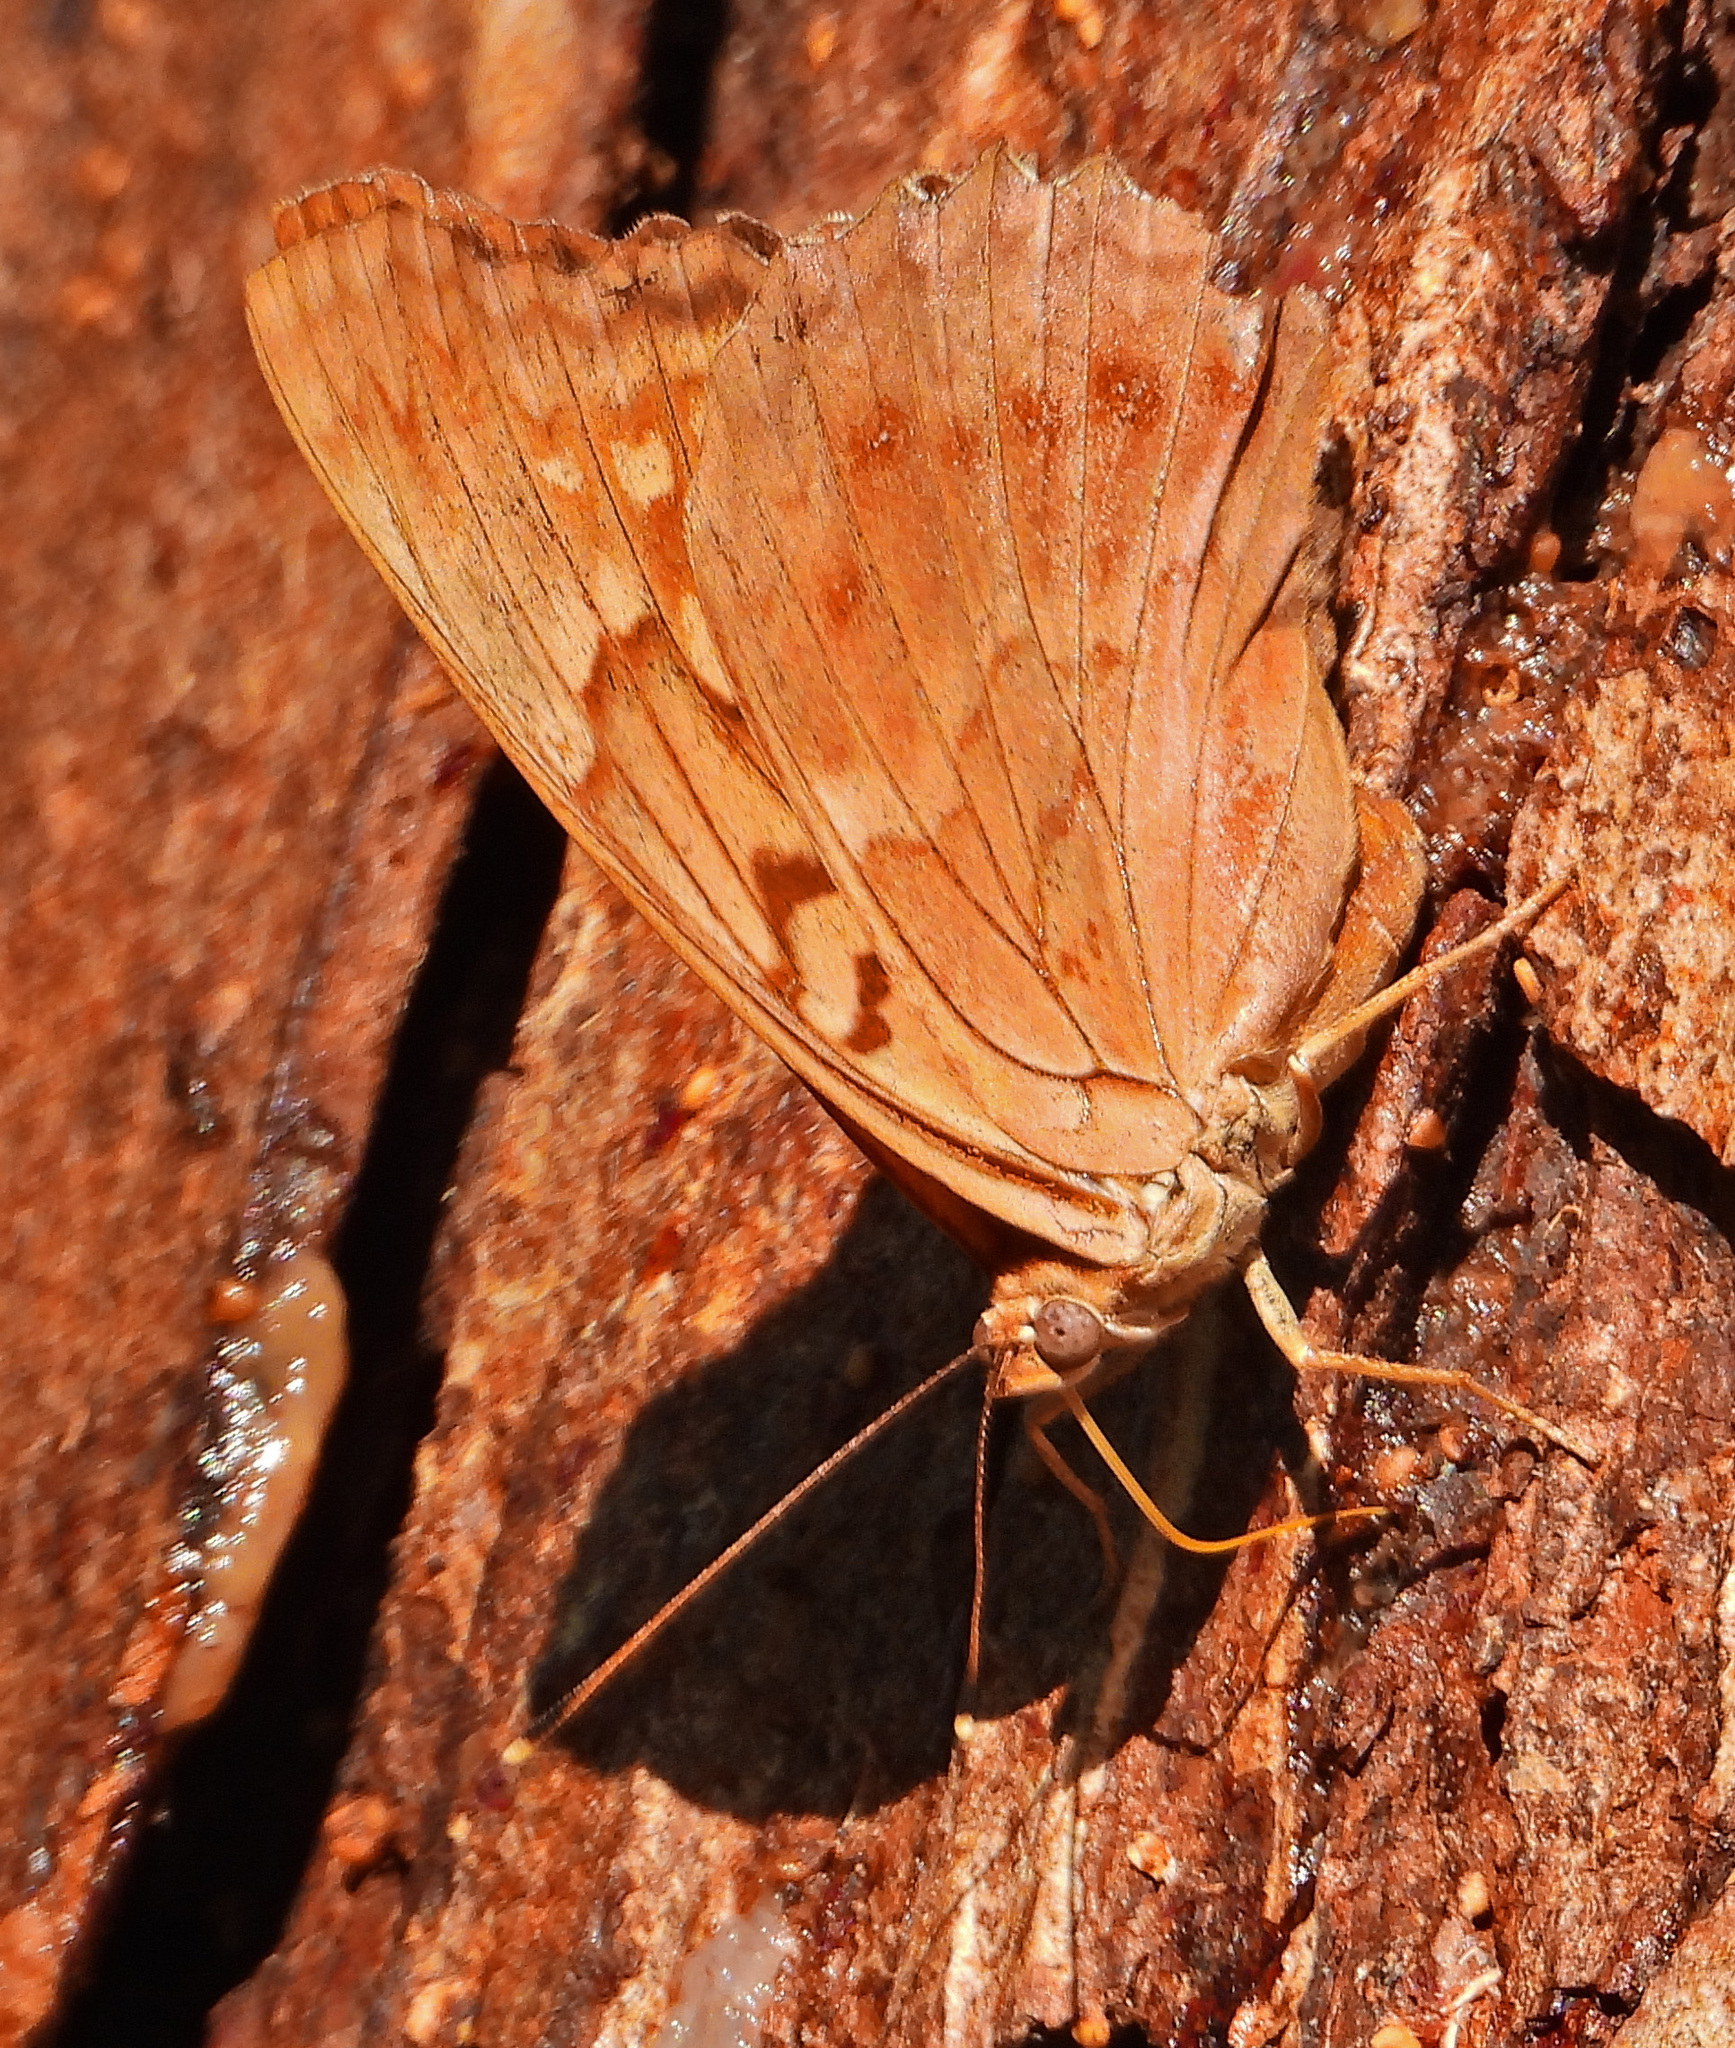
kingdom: Animalia
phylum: Arthropoda
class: Insecta
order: Lepidoptera
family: Nymphalidae
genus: Asterocampa
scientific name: Asterocampa clyton
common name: Tawny emperor
